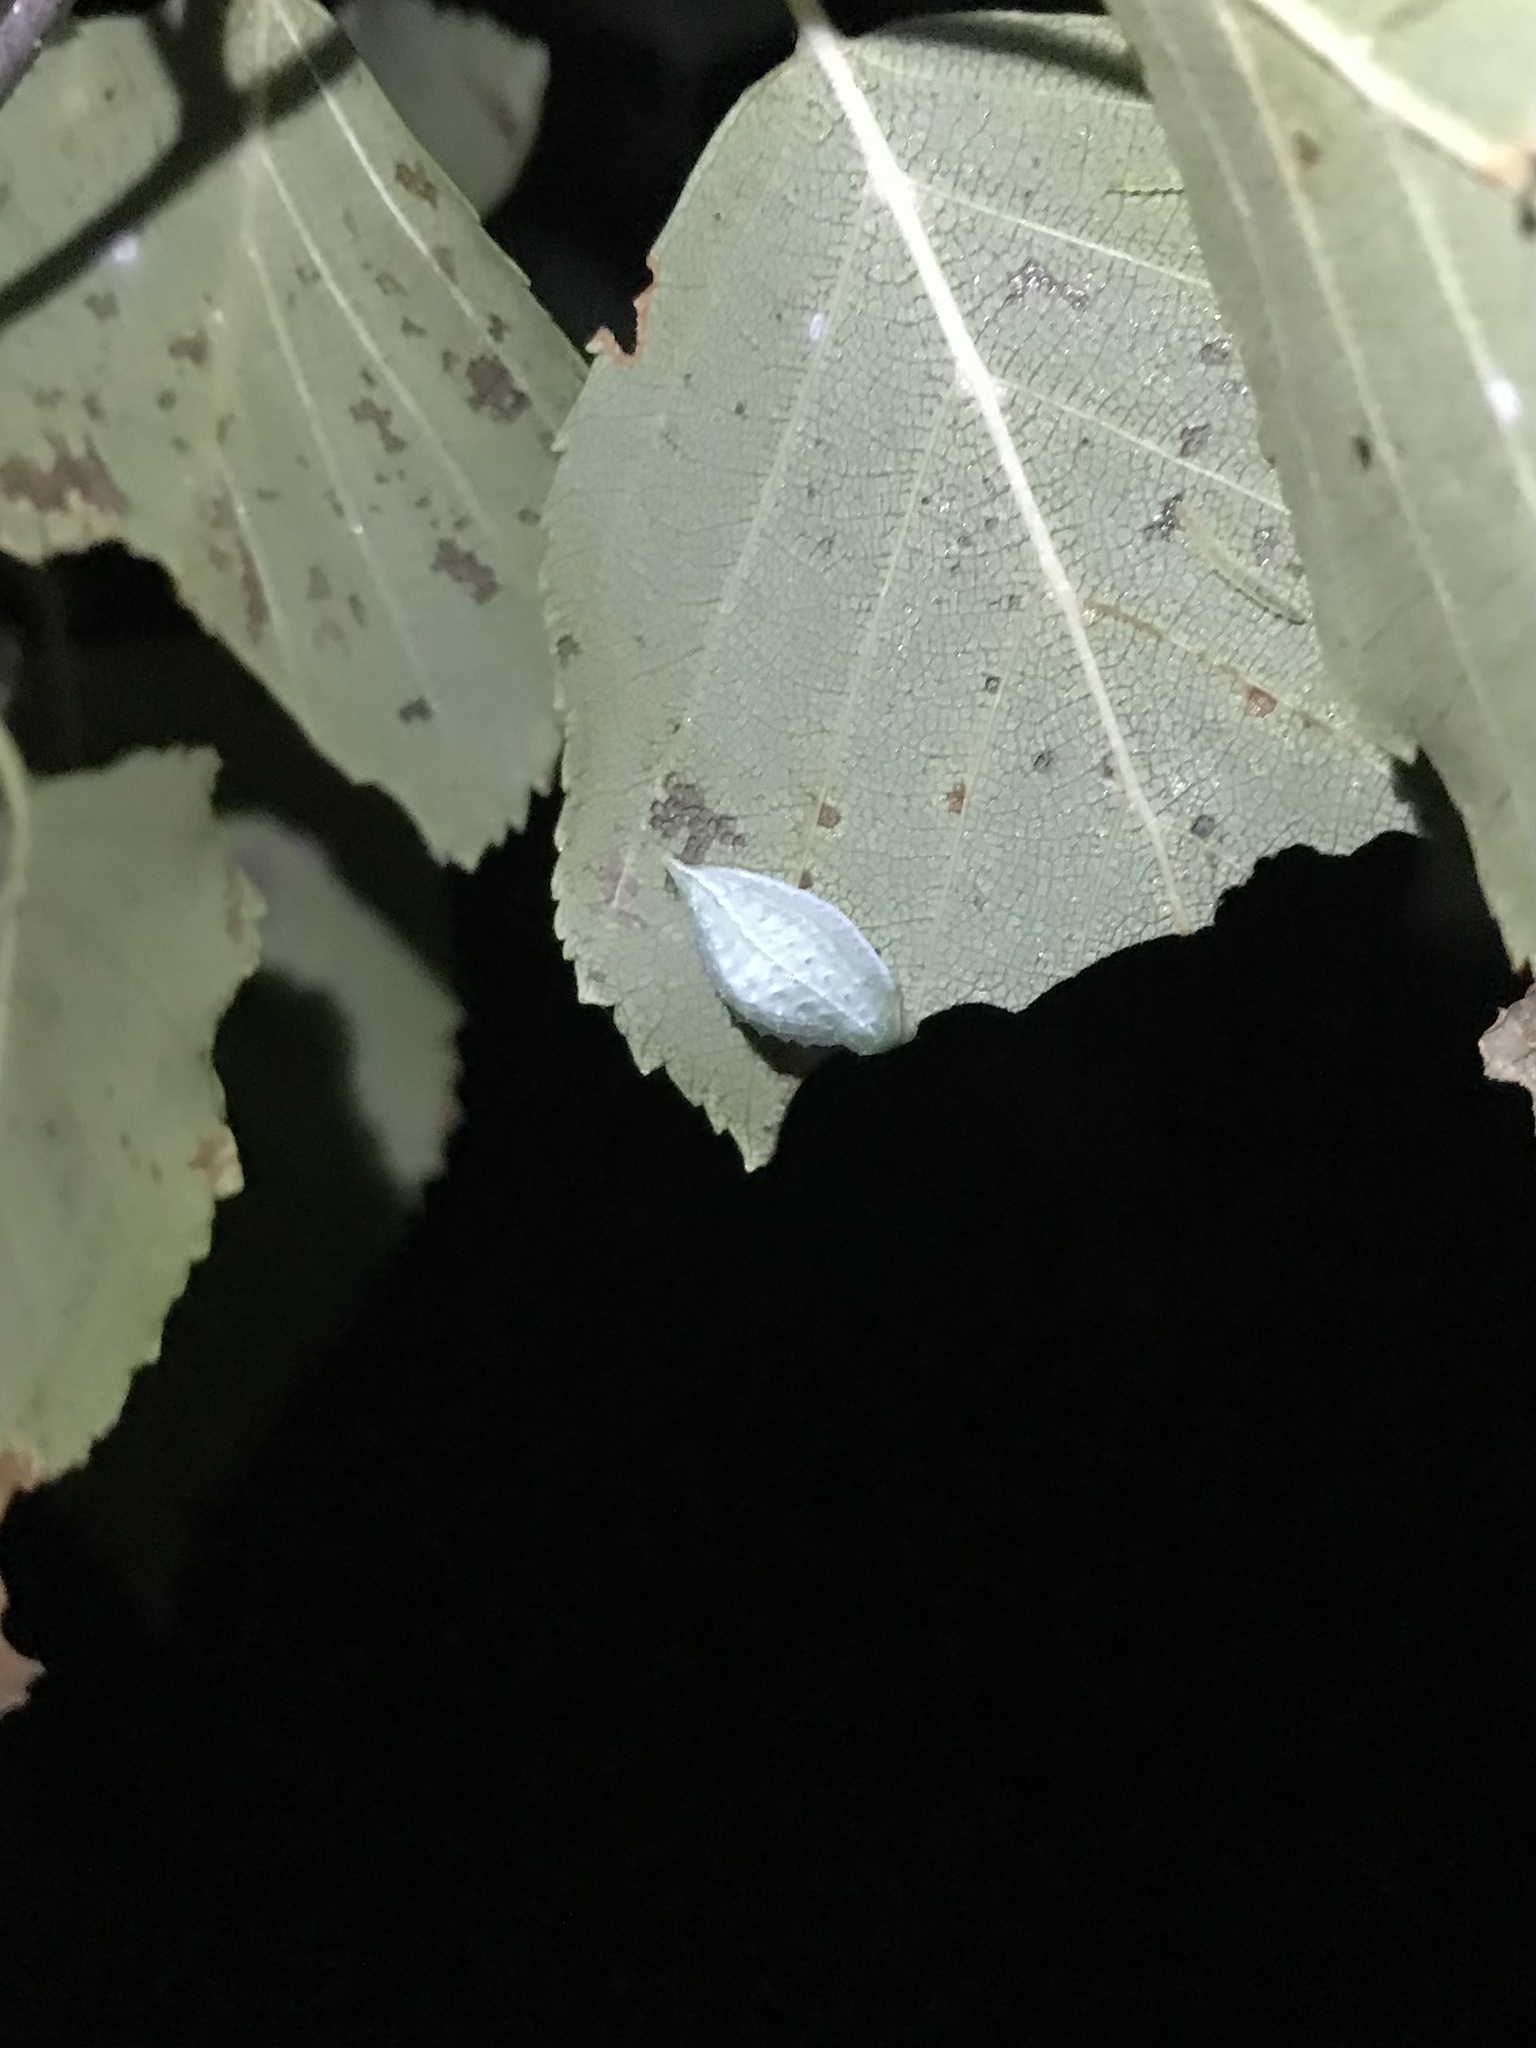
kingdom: Animalia
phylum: Arthropoda
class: Insecta
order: Lepidoptera
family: Limacodidae
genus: Packardia
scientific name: Packardia geminata
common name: Jeweled tailed slug moth
